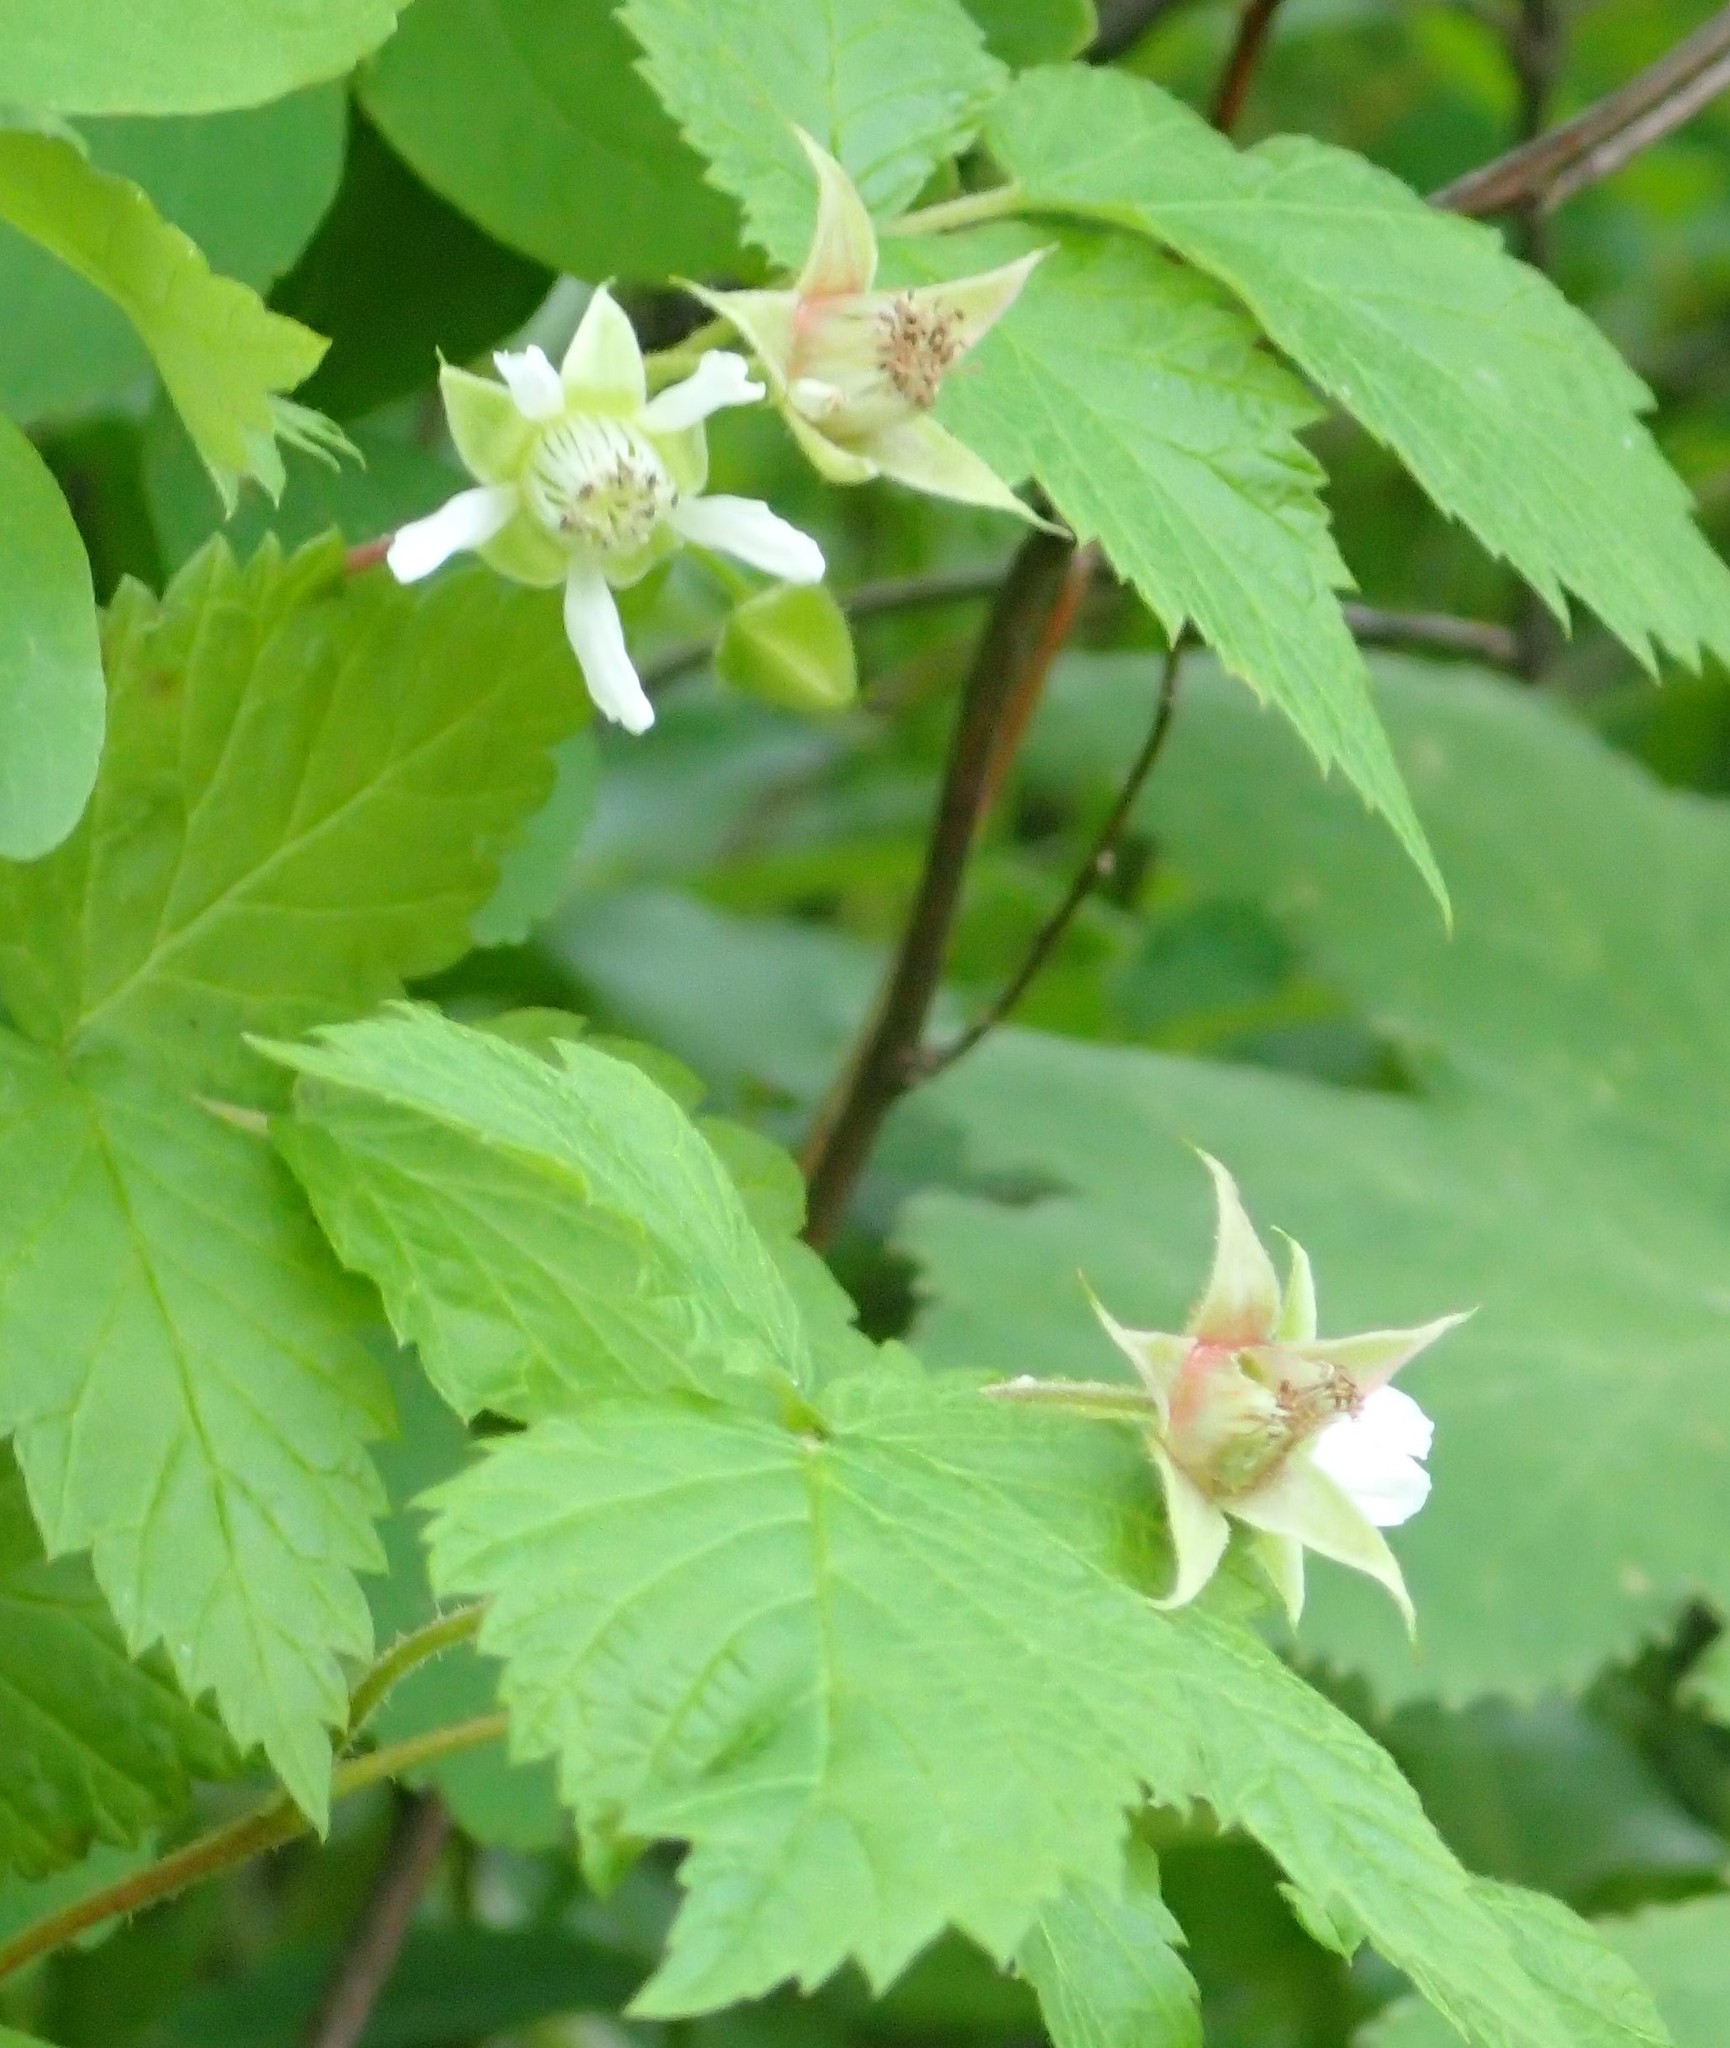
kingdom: Plantae
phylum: Tracheophyta
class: Magnoliopsida
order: Rosales
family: Rosaceae
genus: Rubus
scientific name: Rubus idaeus
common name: Raspberry
